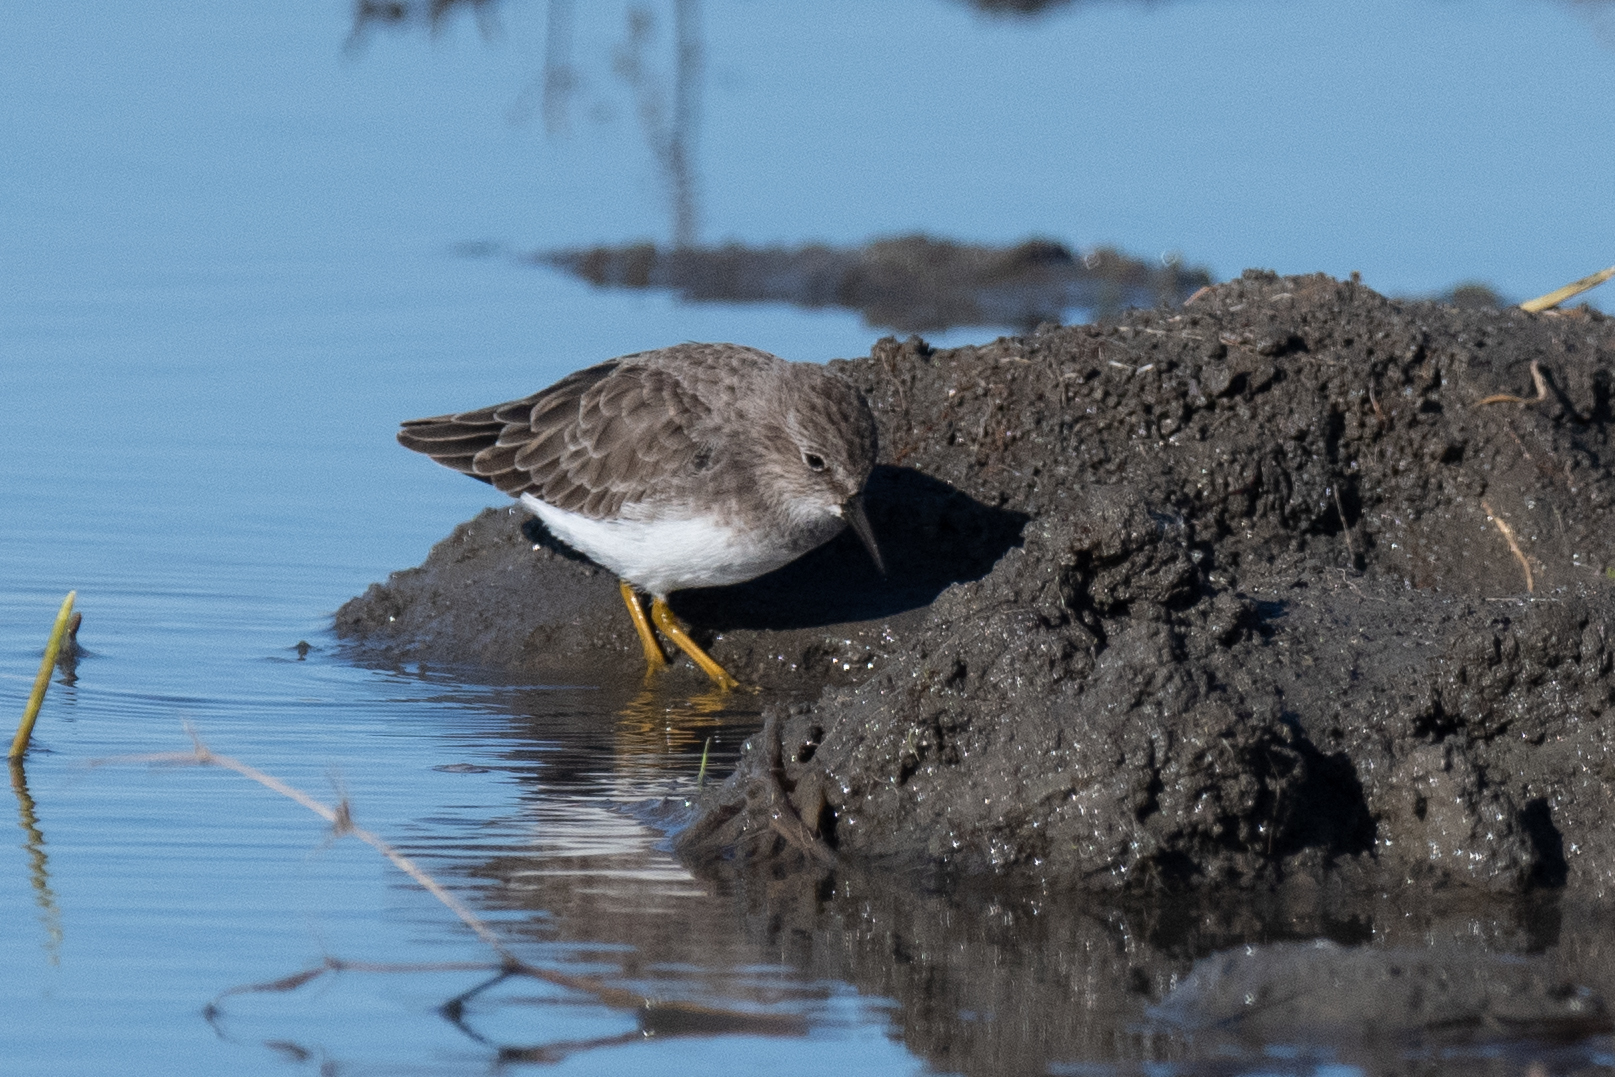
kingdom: Animalia
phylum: Chordata
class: Aves
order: Charadriiformes
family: Scolopacidae
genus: Calidris
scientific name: Calidris minutilla
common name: Least sandpiper
